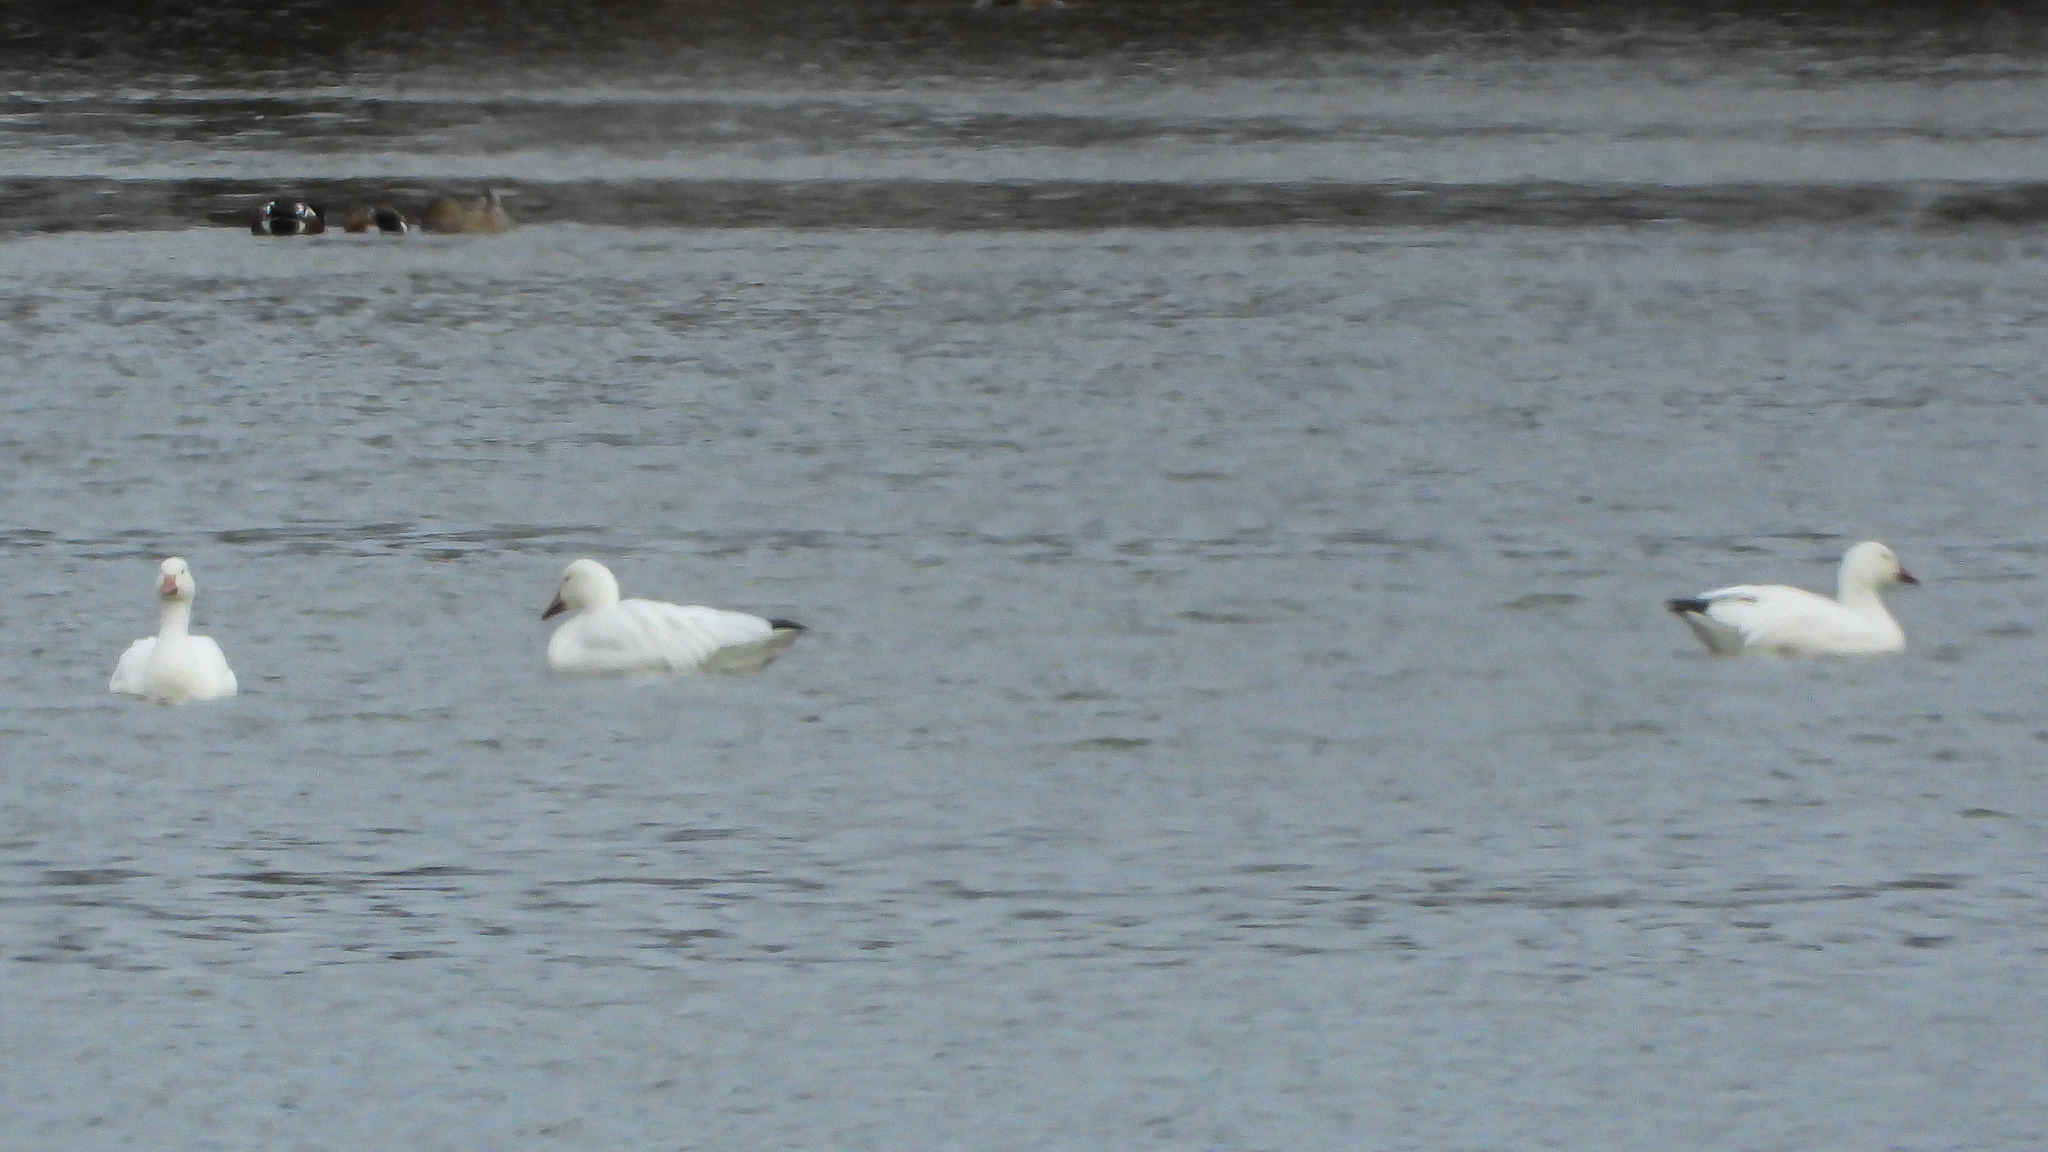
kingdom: Animalia
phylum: Chordata
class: Aves
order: Anseriformes
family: Anatidae
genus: Anser
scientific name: Anser caerulescens
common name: Snow goose
